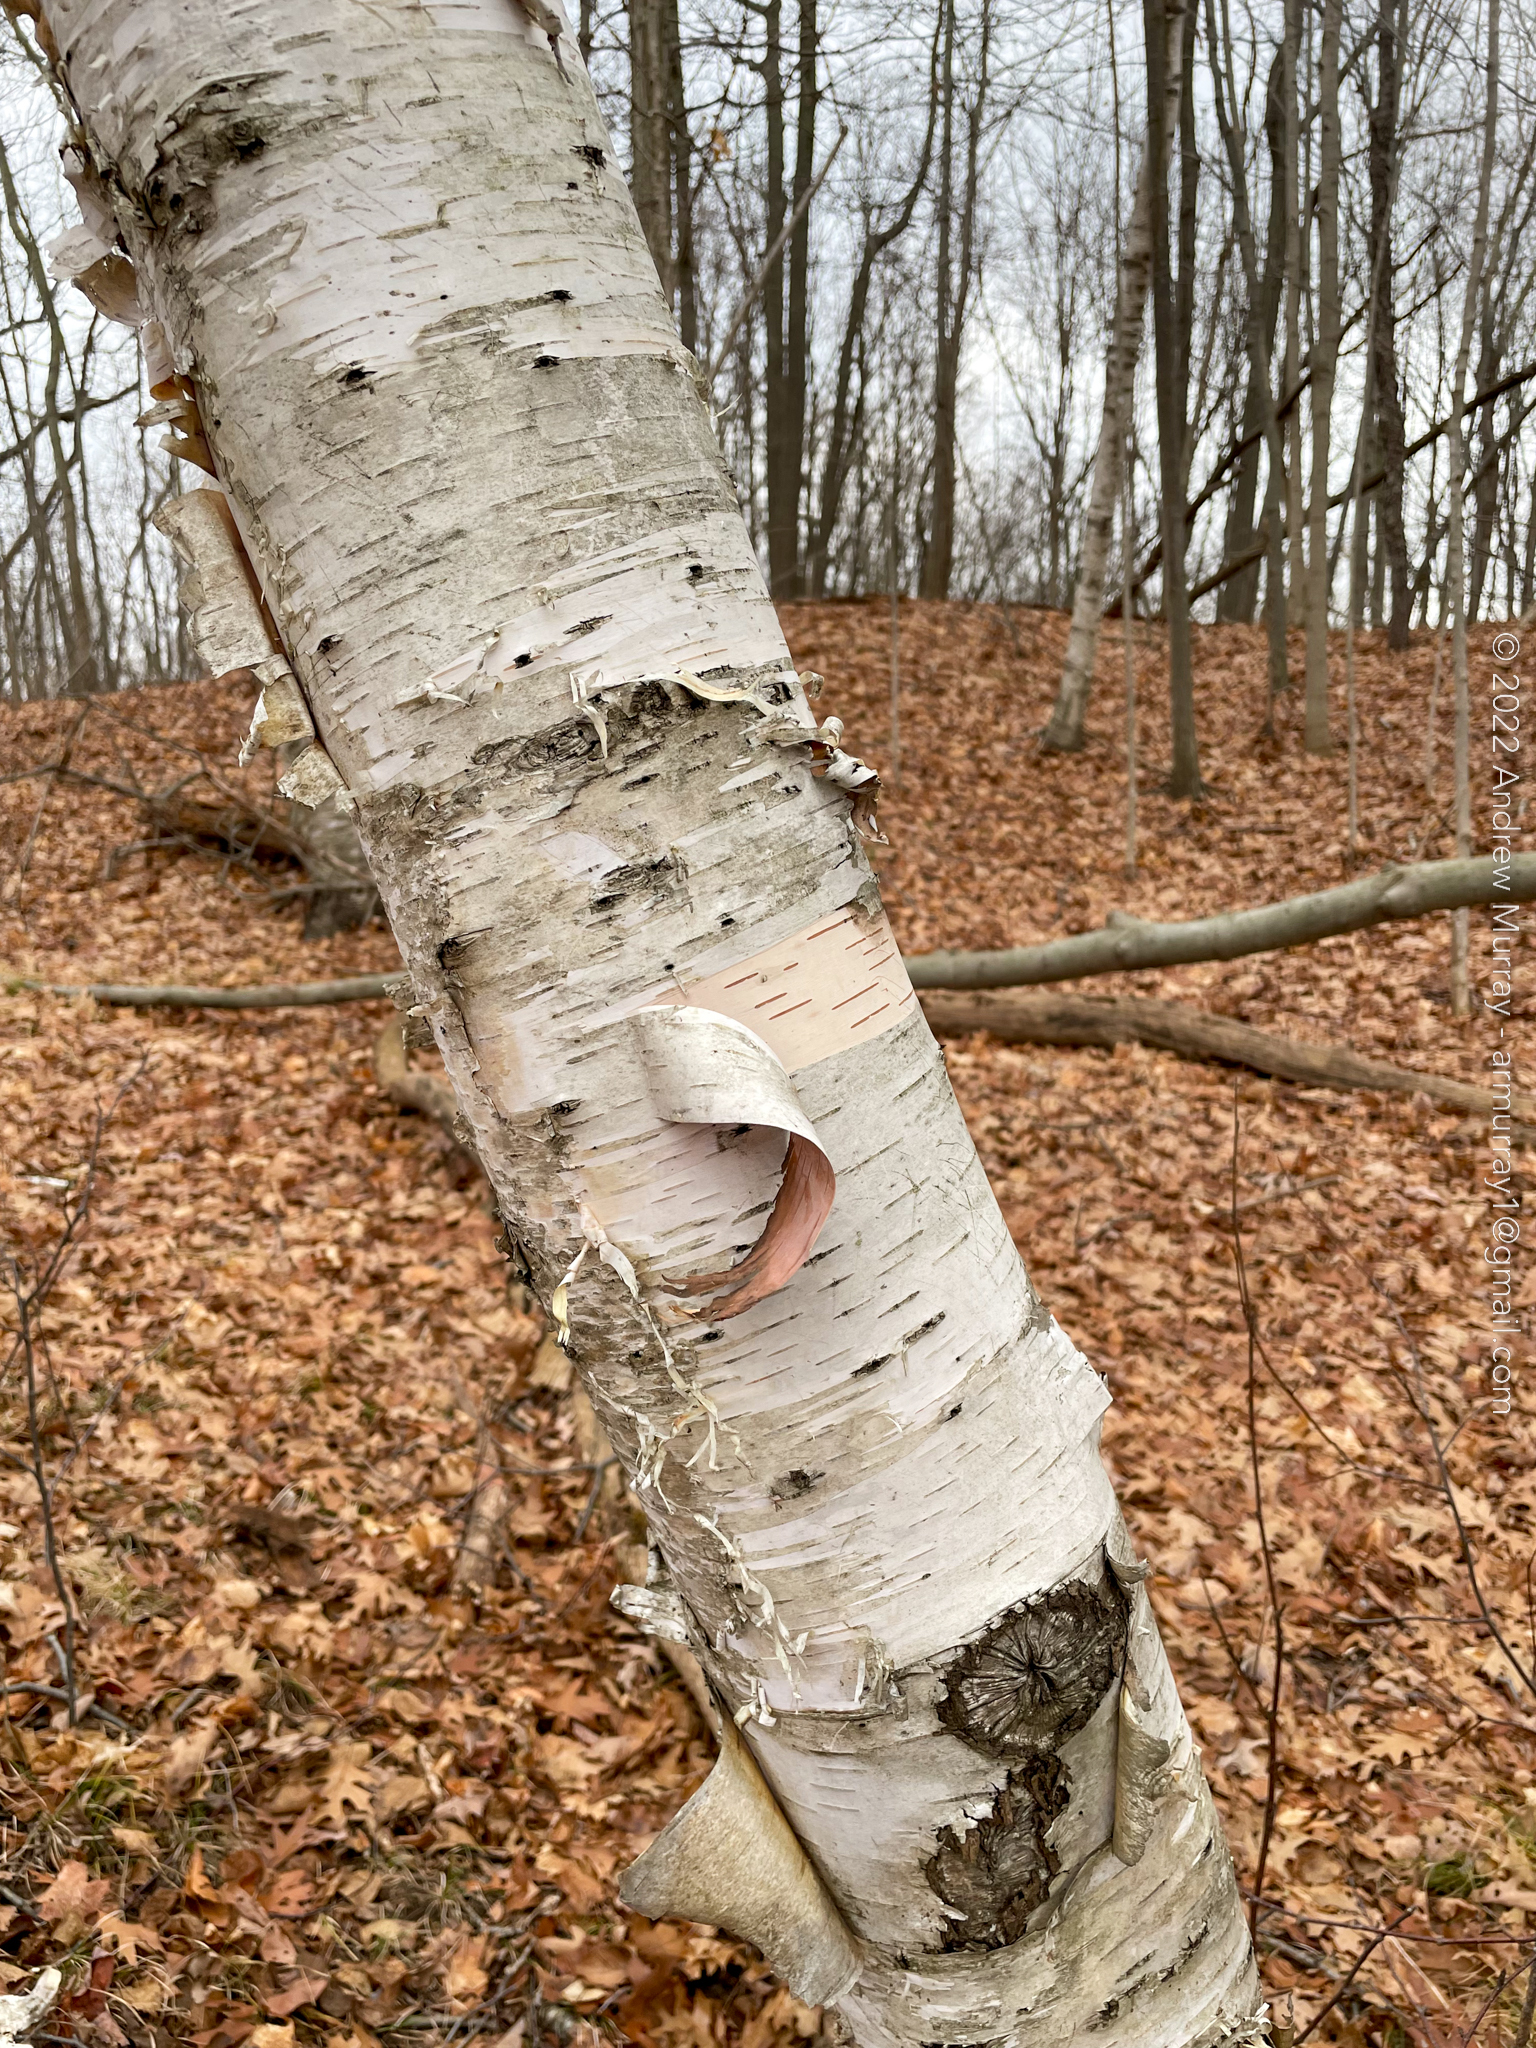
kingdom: Plantae
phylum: Tracheophyta
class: Magnoliopsida
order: Fagales
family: Betulaceae
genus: Betula
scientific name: Betula papyrifera
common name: Paper birch
